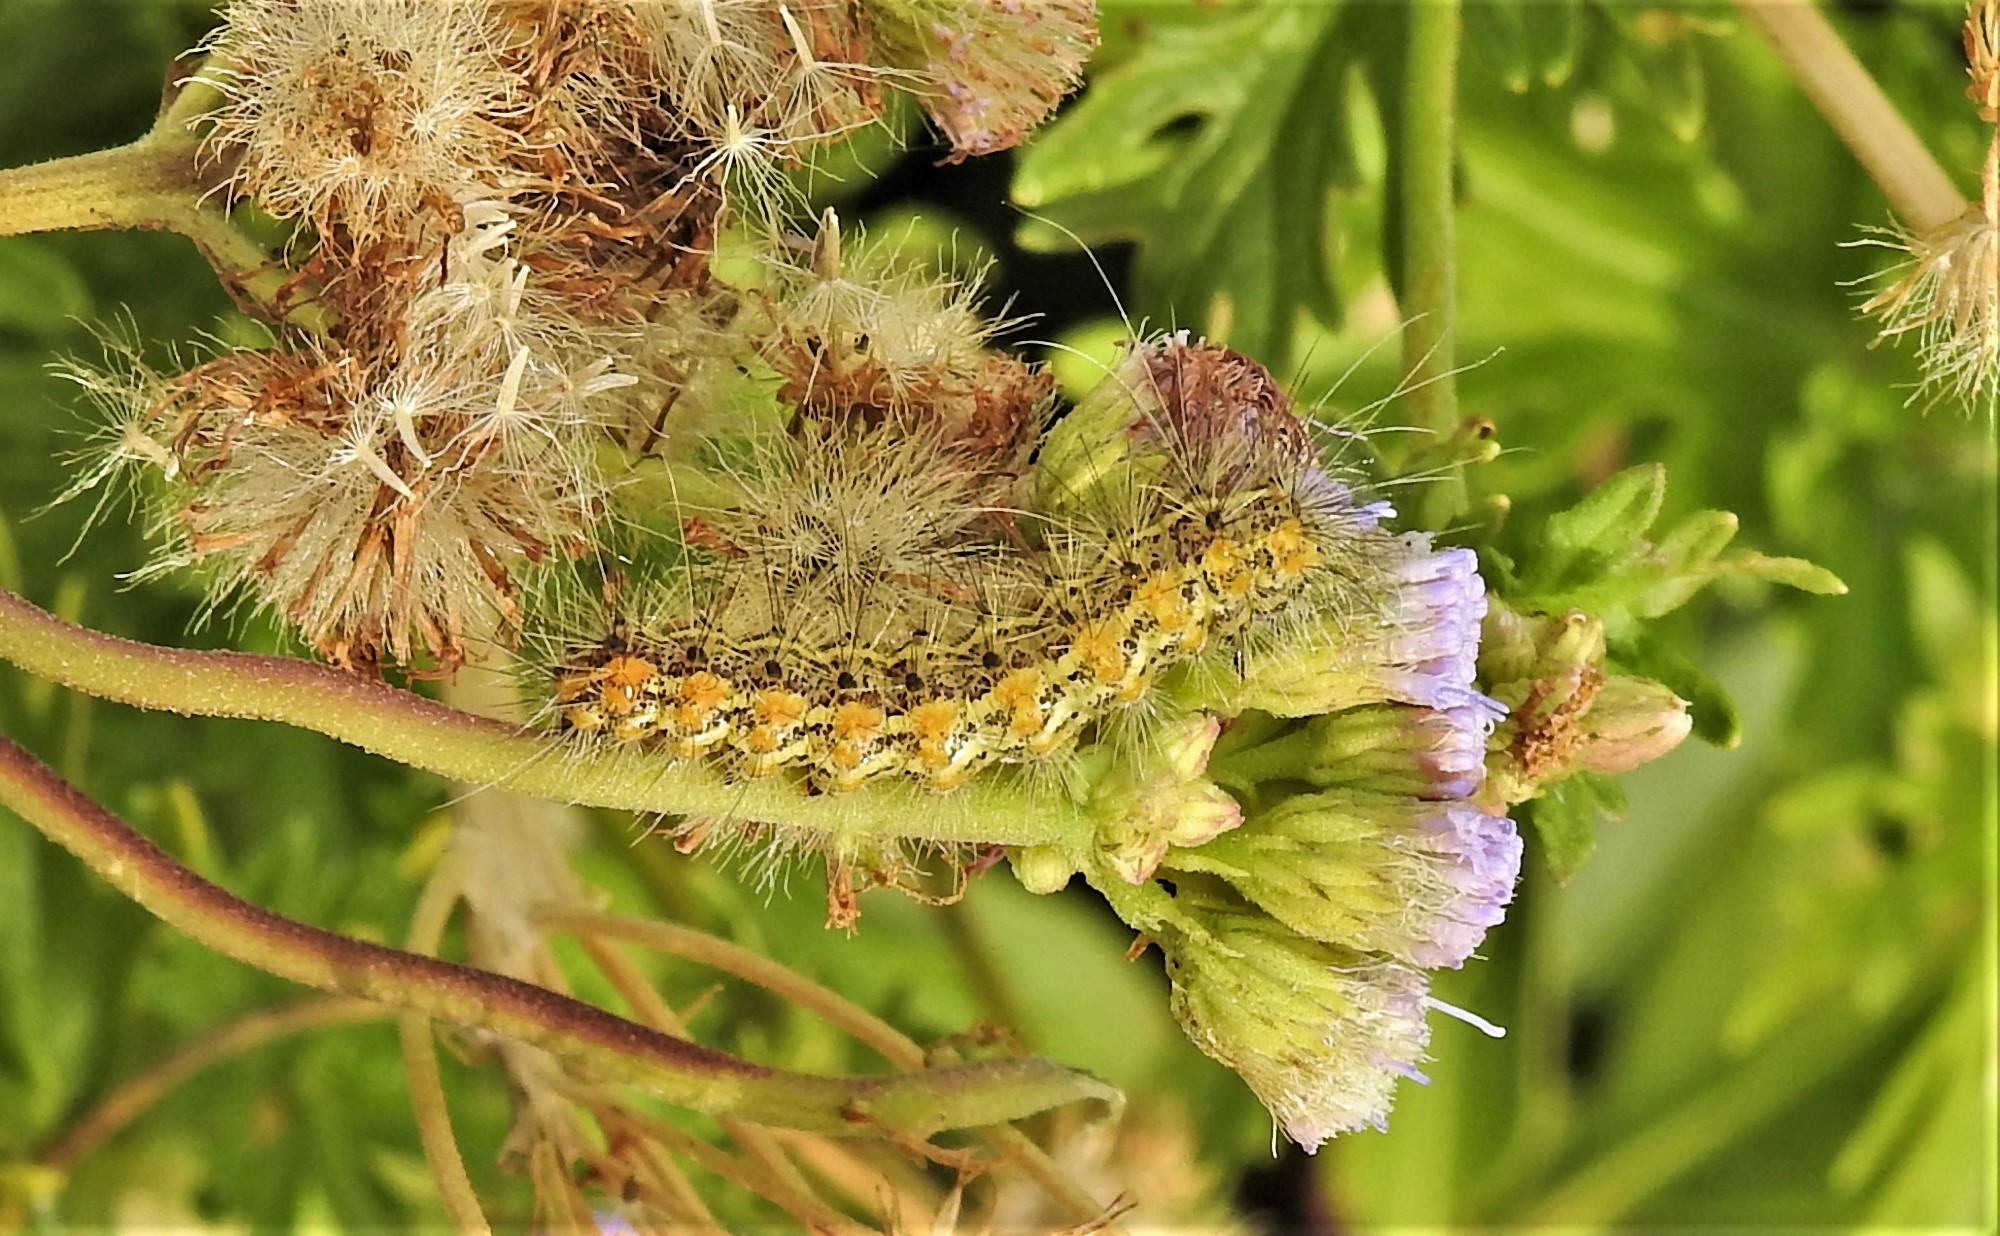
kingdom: Animalia
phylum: Arthropoda
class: Insecta
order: Lepidoptera
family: Erebidae
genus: Estigmene
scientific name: Estigmene acrea
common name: Salt marsh moth
